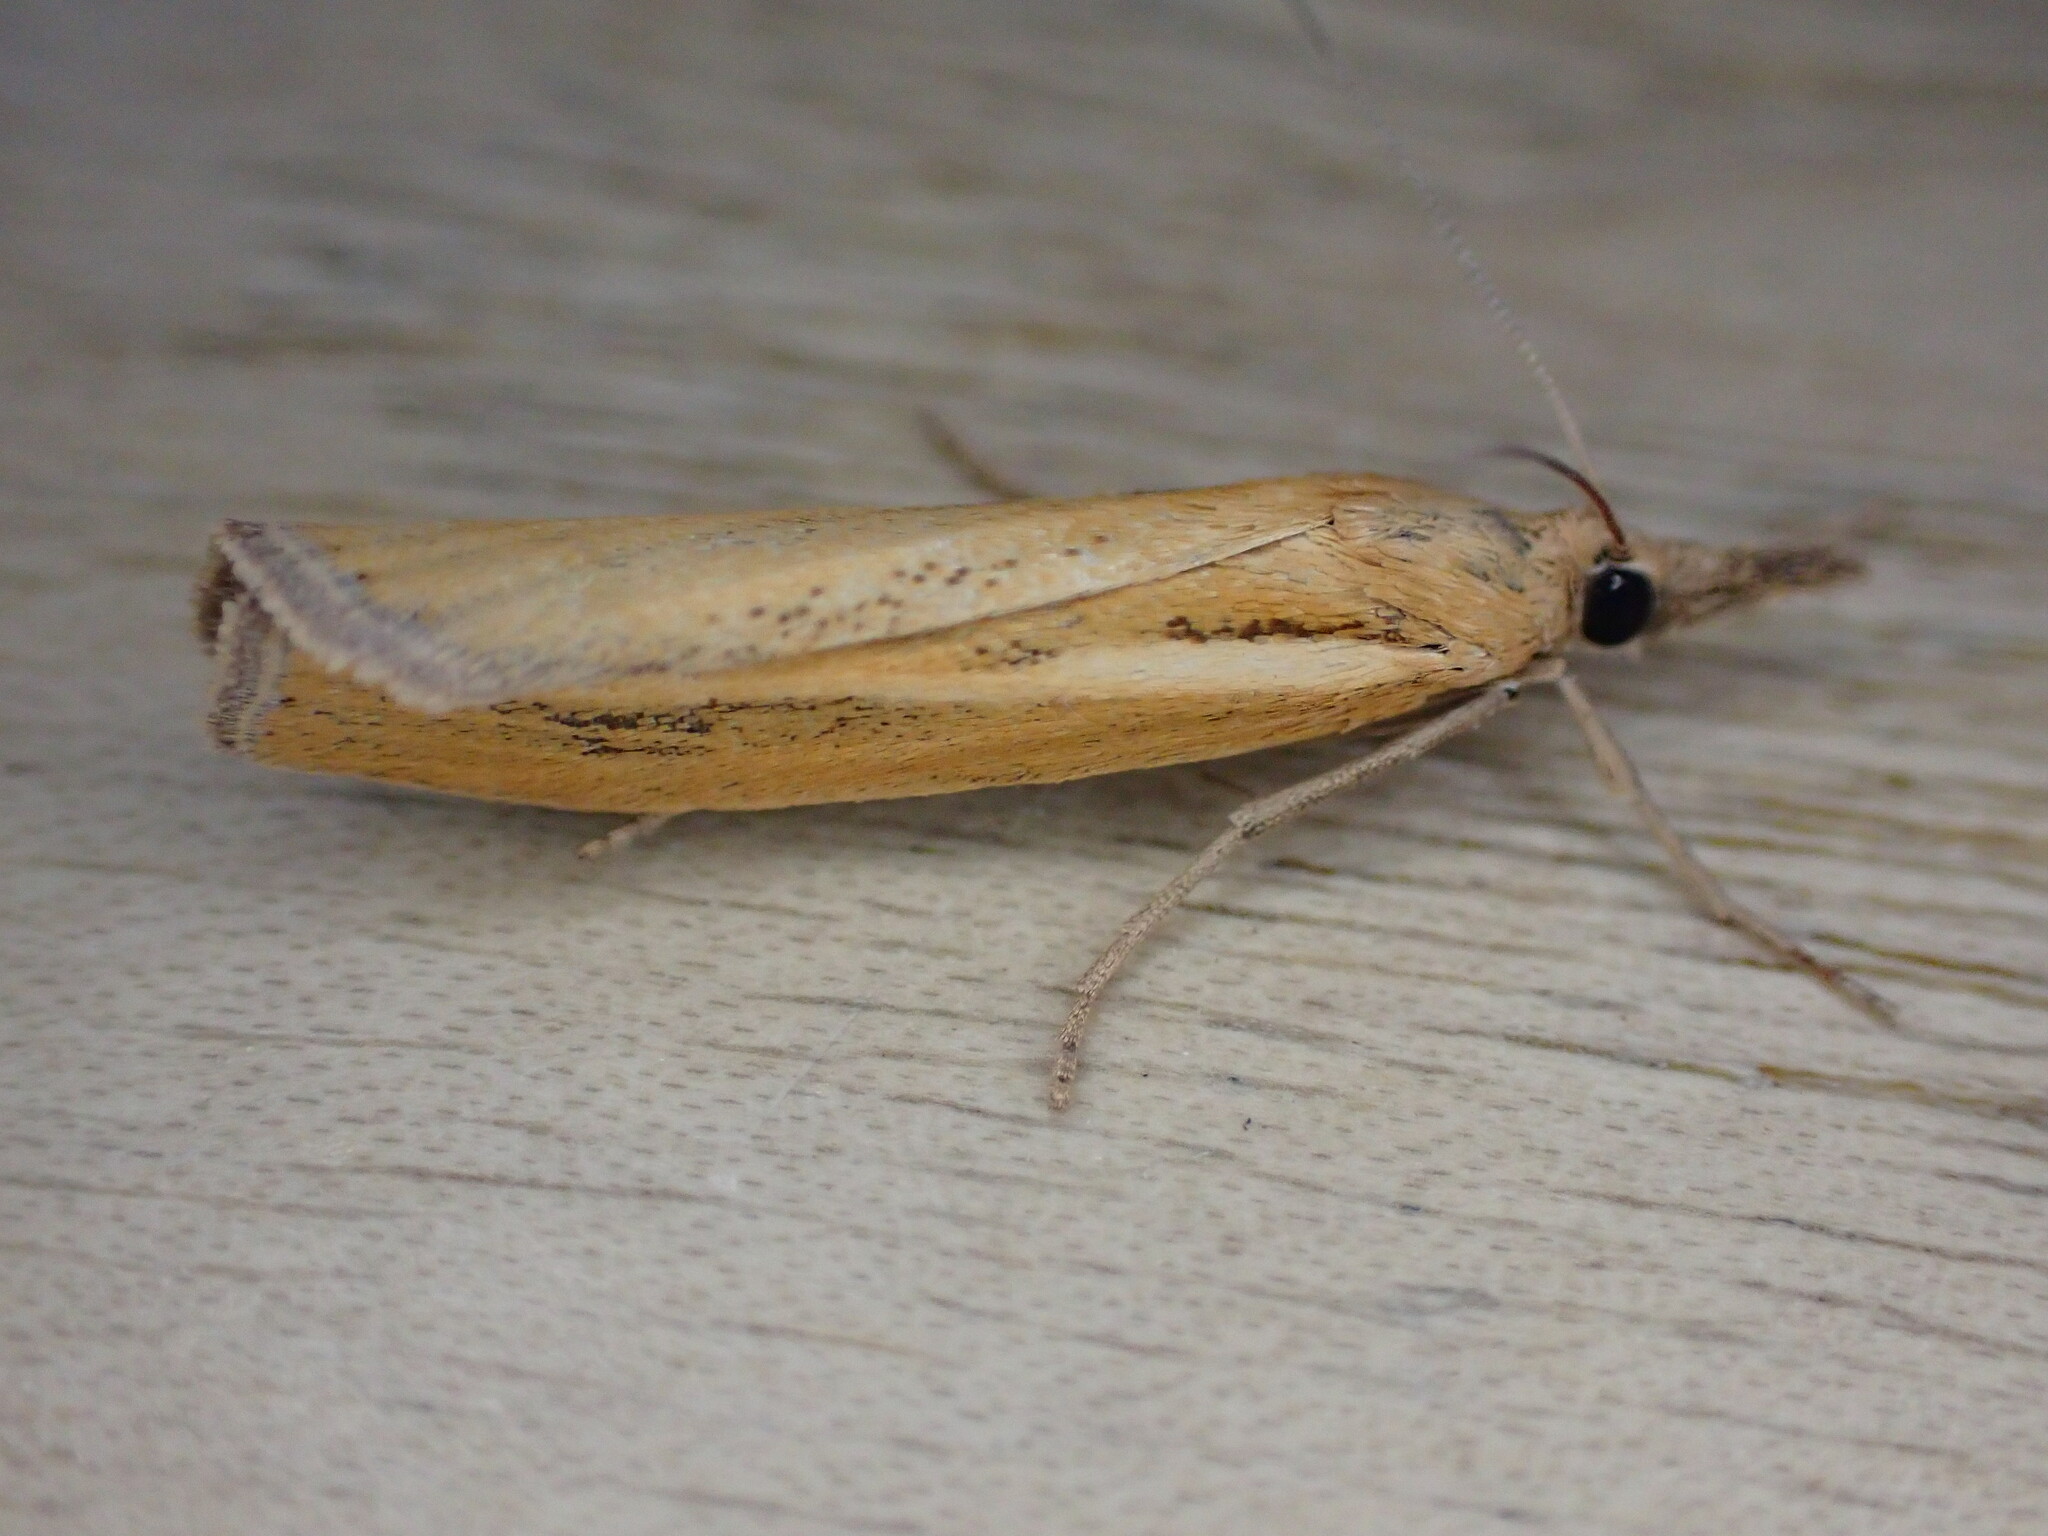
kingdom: Animalia
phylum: Arthropoda
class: Insecta
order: Lepidoptera
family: Crambidae
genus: Agriphila
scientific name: Agriphila tristellus
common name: Common grass-veneer
